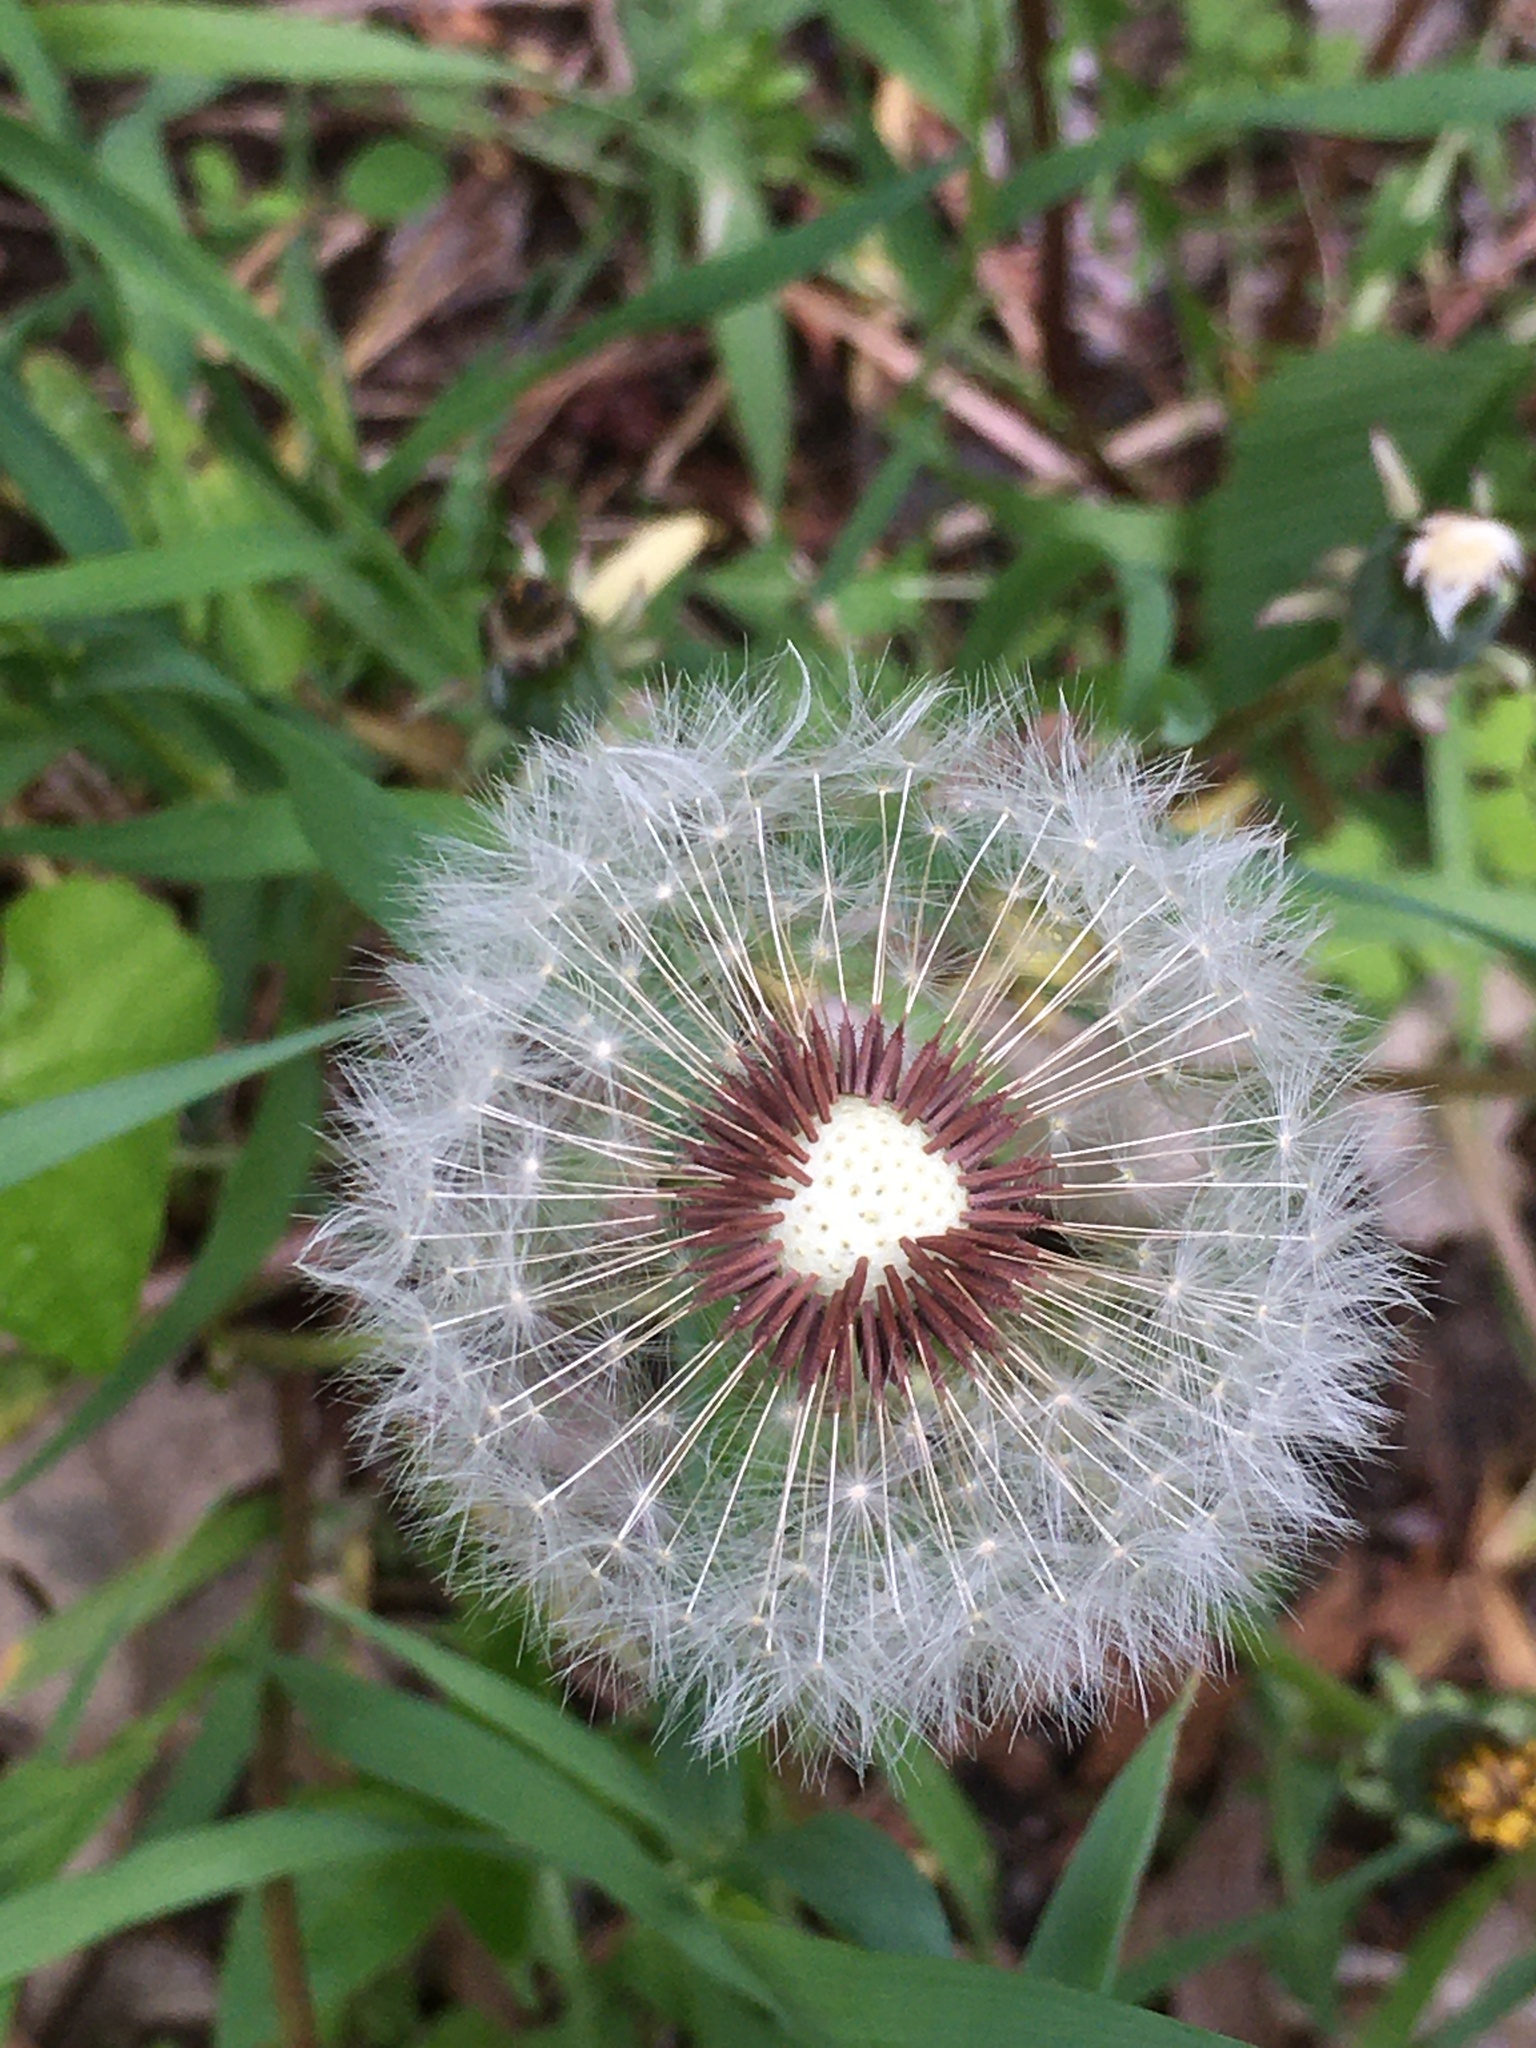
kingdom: Plantae
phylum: Tracheophyta
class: Magnoliopsida
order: Asterales
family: Asteraceae
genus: Taraxacum
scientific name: Taraxacum erythrospermum
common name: Rock dandelion
